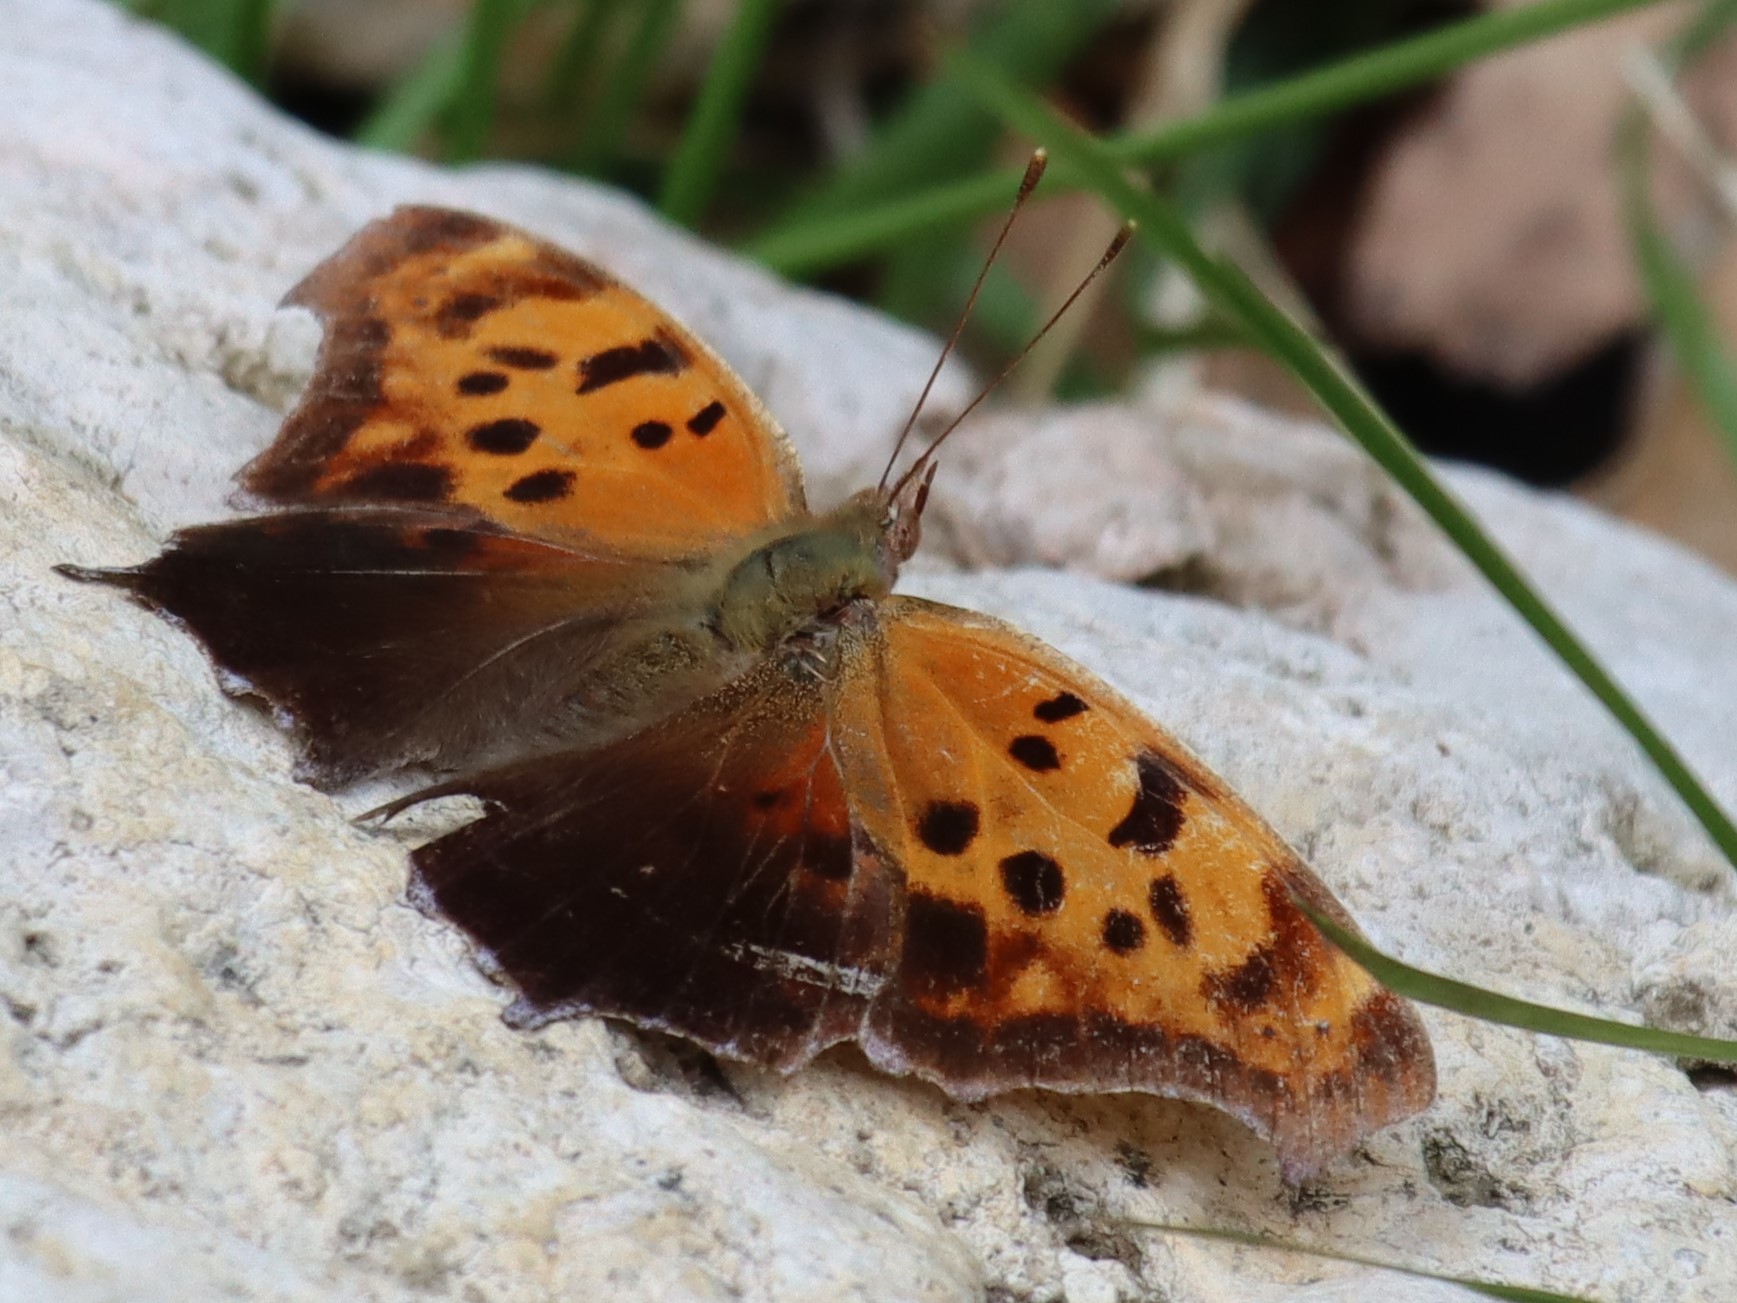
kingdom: Animalia
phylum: Arthropoda
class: Insecta
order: Lepidoptera
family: Nymphalidae
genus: Polygonia
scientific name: Polygonia interrogationis
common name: Question mark
